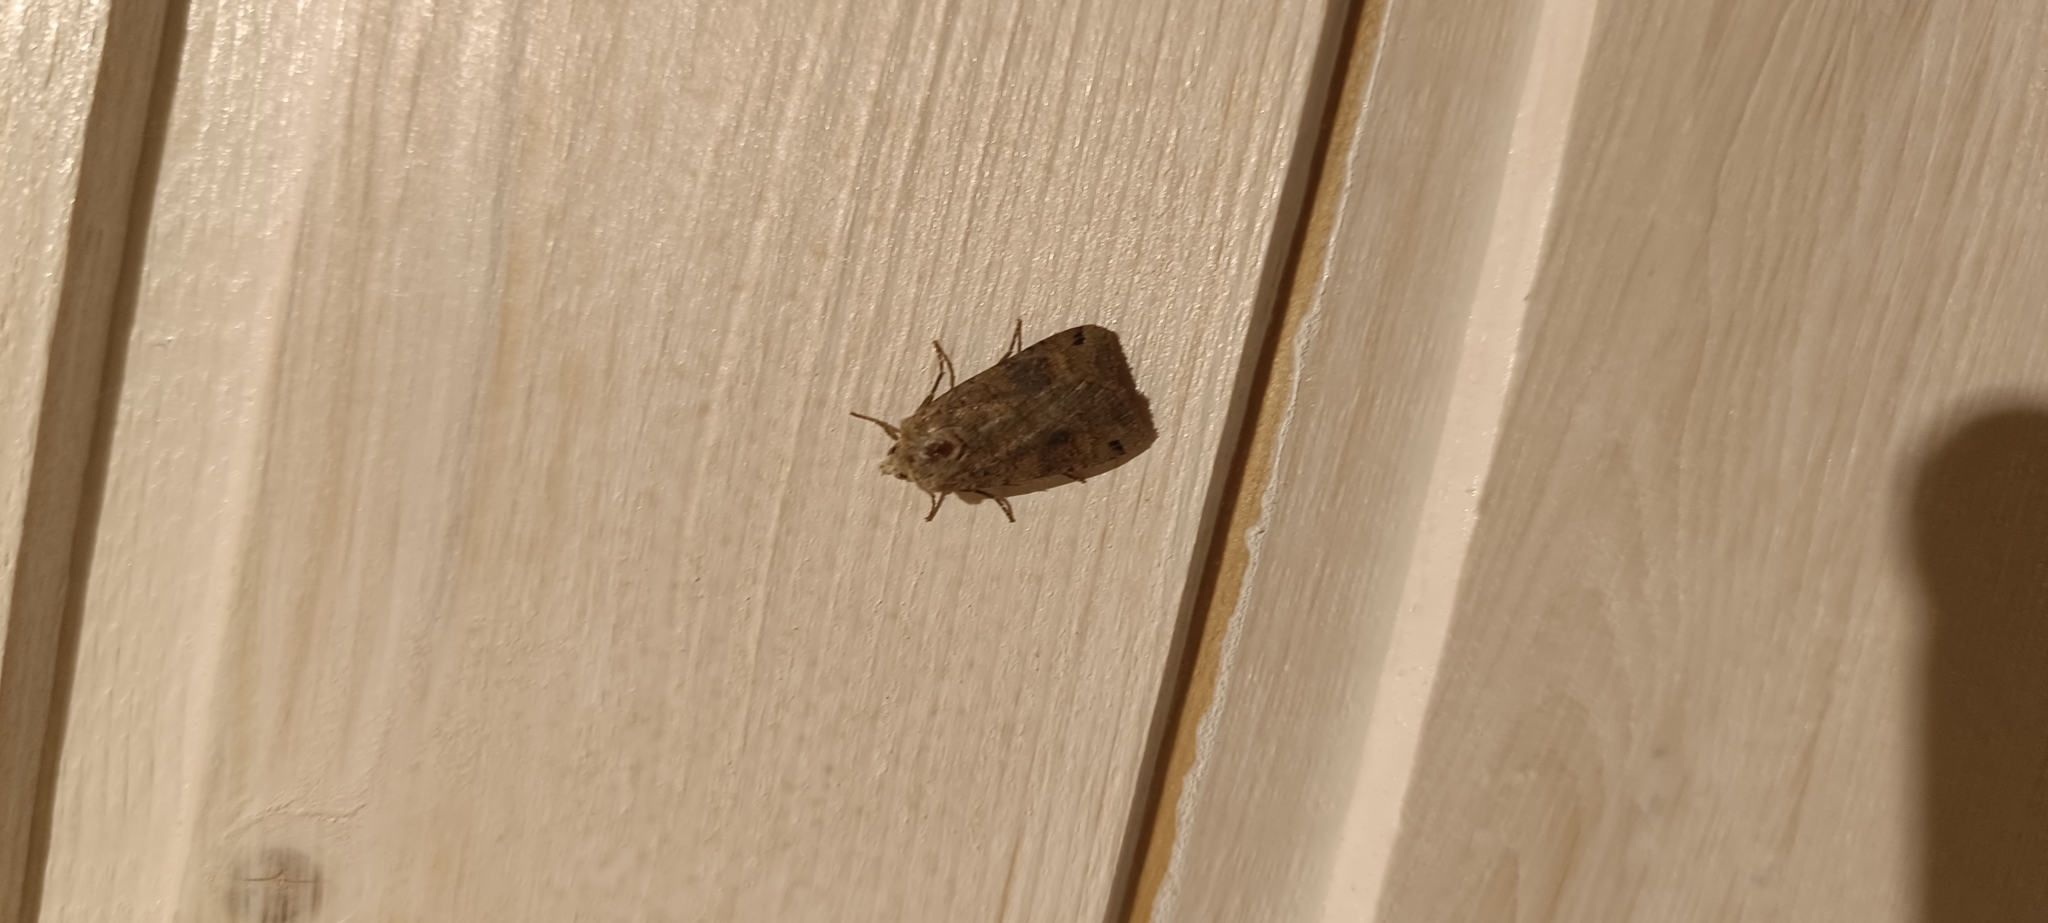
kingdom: Animalia
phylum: Arthropoda
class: Insecta
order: Lepidoptera
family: Noctuidae
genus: Xestia
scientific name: Xestia baja
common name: Dotted clay
